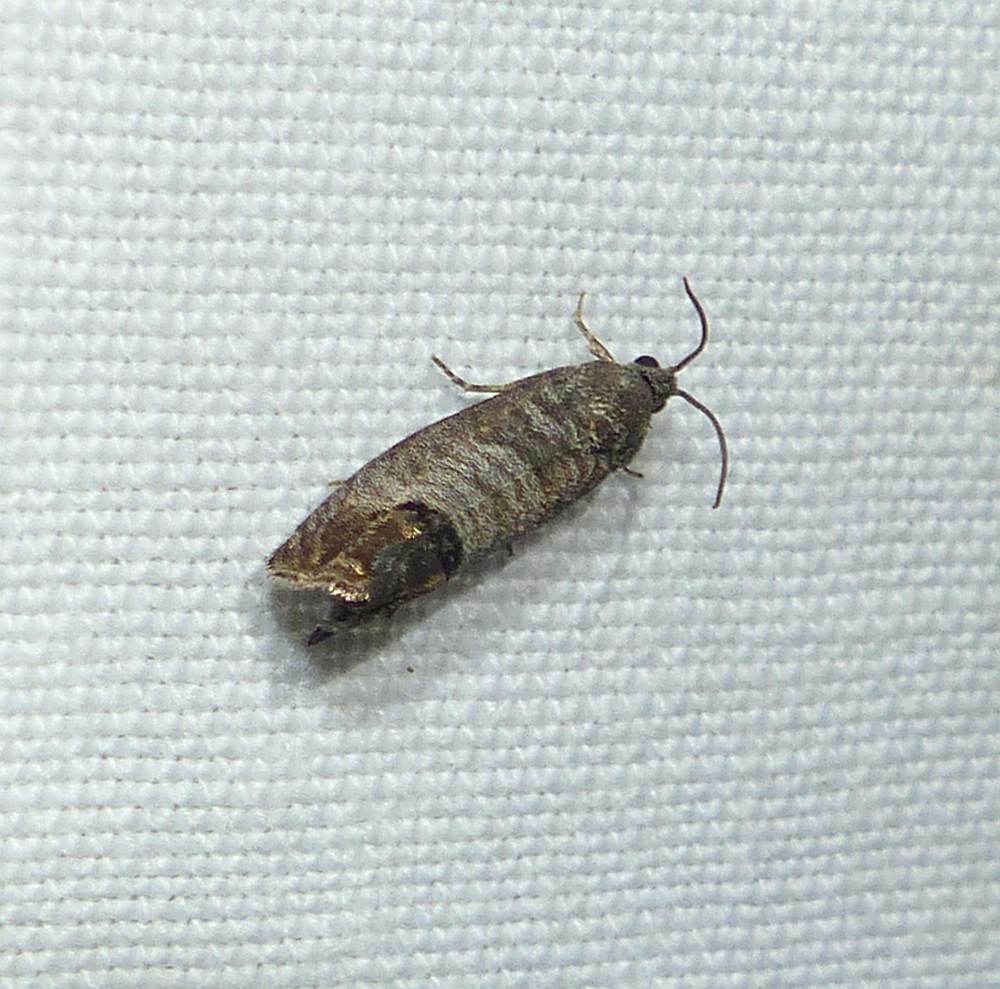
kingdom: Animalia
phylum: Arthropoda
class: Insecta
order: Lepidoptera
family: Tortricidae
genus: Cydia
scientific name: Cydia pomonella
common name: Codling moth
